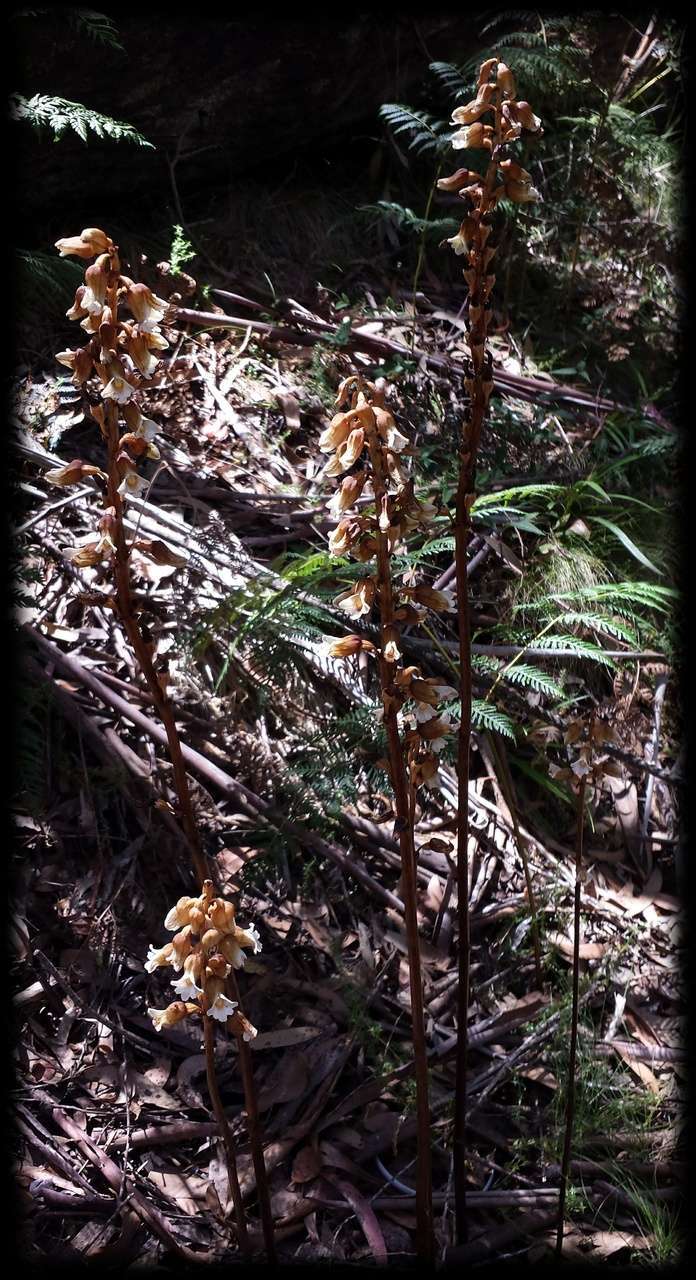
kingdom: Plantae
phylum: Tracheophyta
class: Liliopsida
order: Asparagales
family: Orchidaceae
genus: Gastrodia
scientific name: Gastrodia procera
